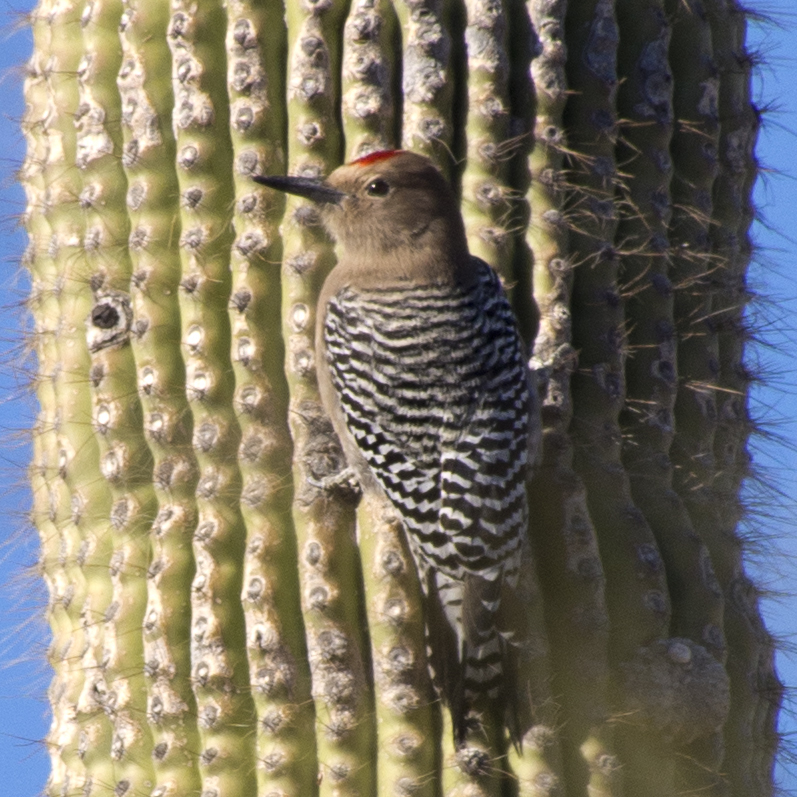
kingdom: Animalia
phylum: Chordata
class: Aves
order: Piciformes
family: Picidae
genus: Melanerpes
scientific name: Melanerpes uropygialis
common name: Gila woodpecker
